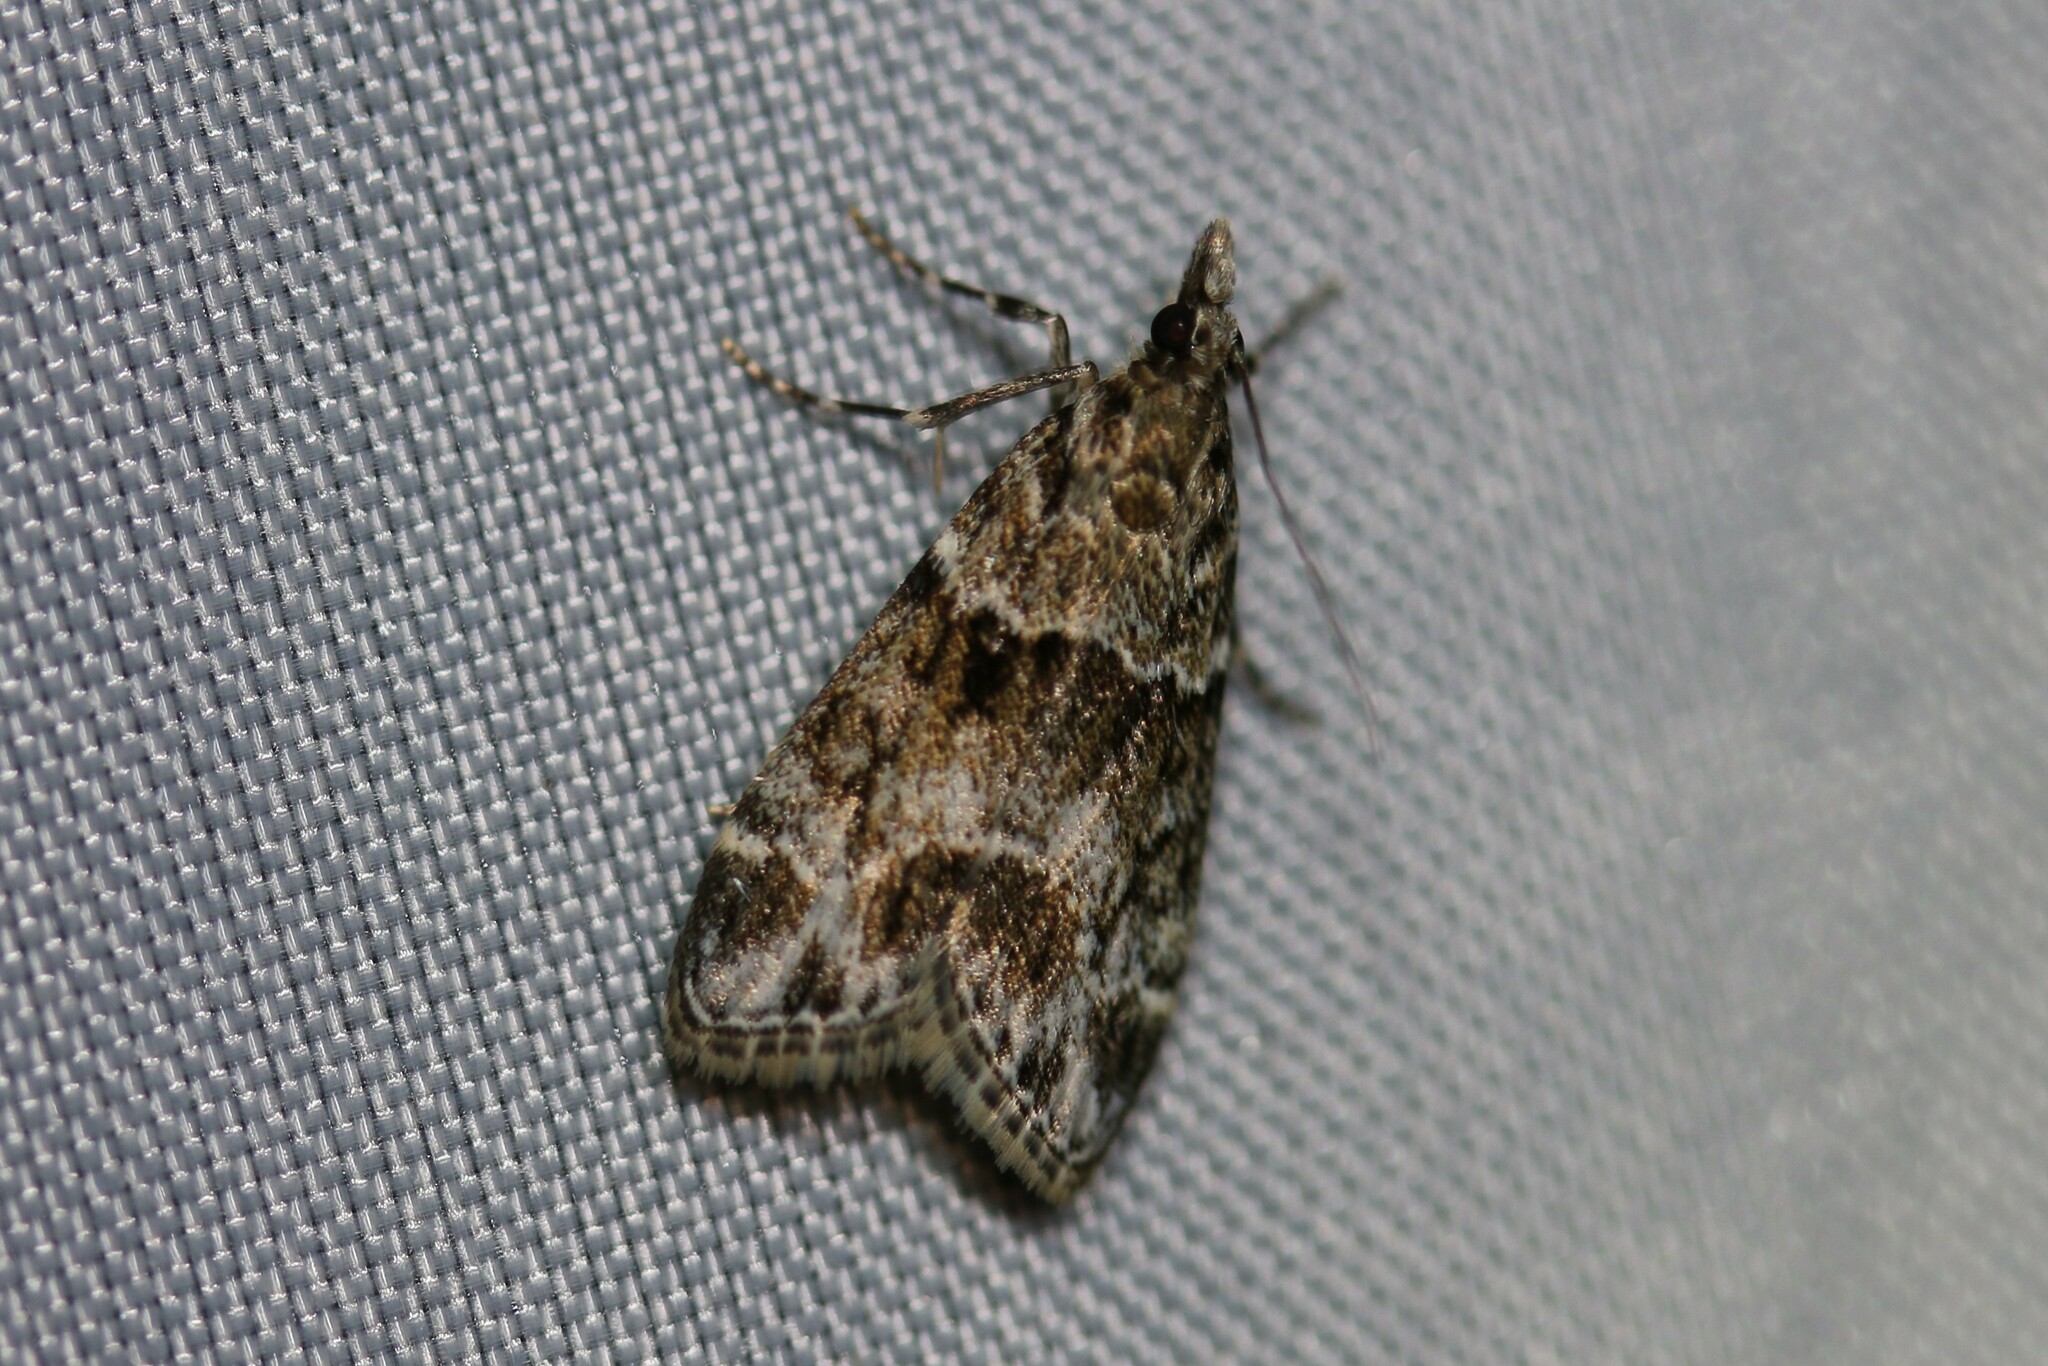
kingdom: Animalia
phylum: Arthropoda
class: Insecta
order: Lepidoptera
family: Crambidae
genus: Eudonia
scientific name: Eudonia mercurella
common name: Small grey
